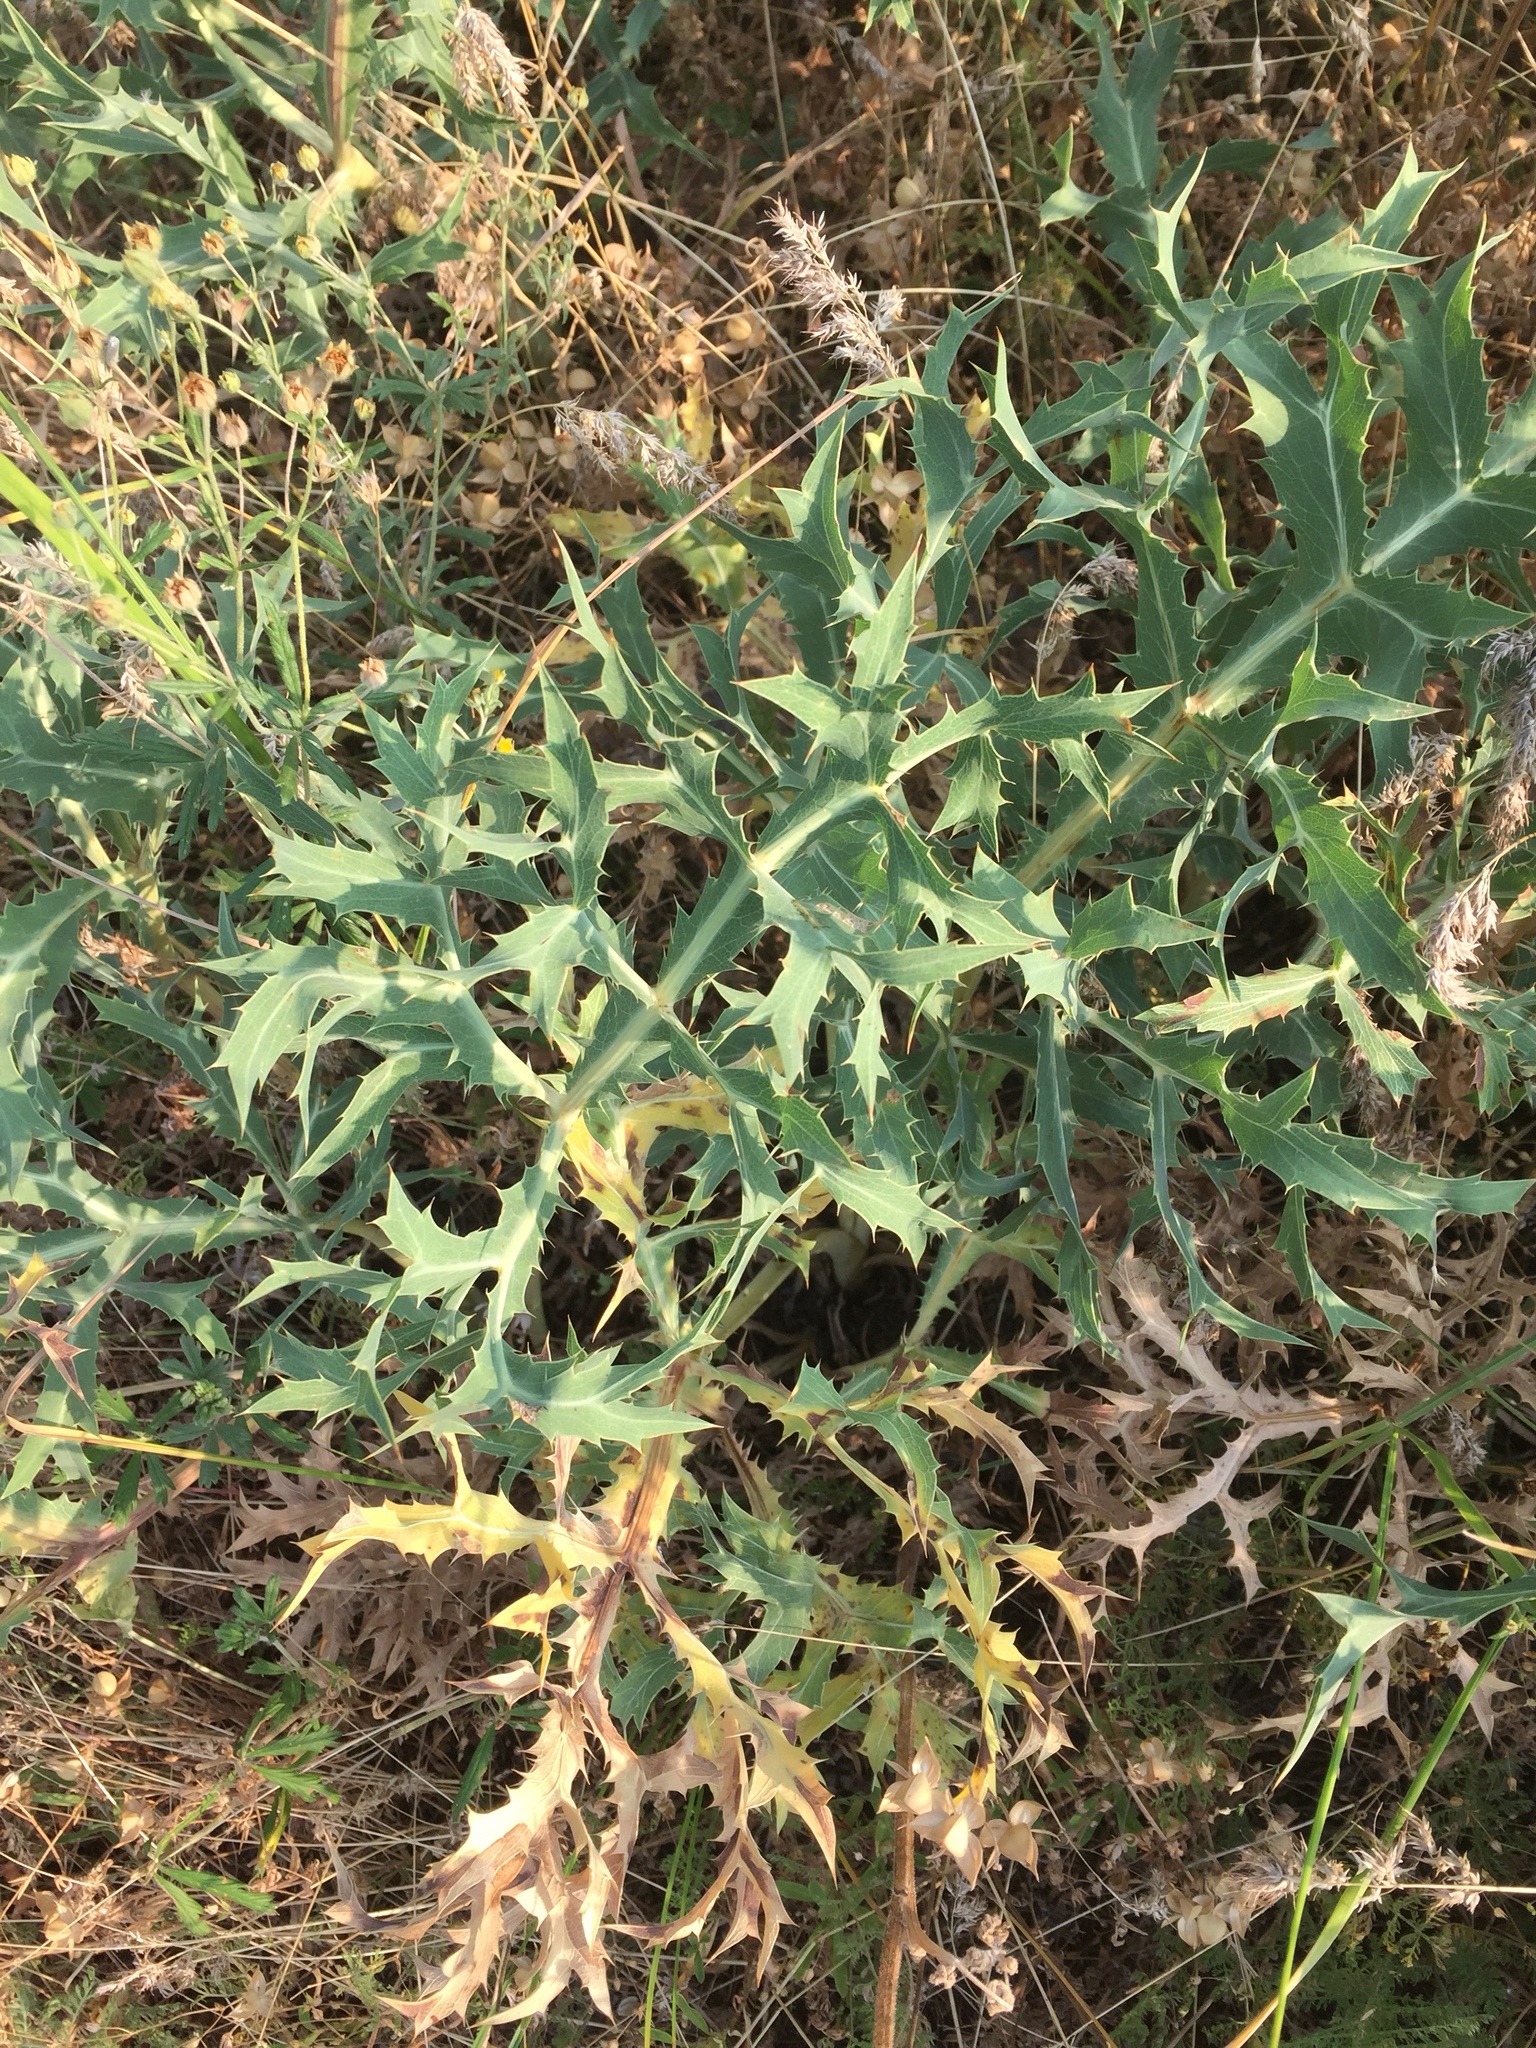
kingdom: Plantae
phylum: Tracheophyta
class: Magnoliopsida
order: Apiales
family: Apiaceae
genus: Eryngium
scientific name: Eryngium campestre
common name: Field eryngo
